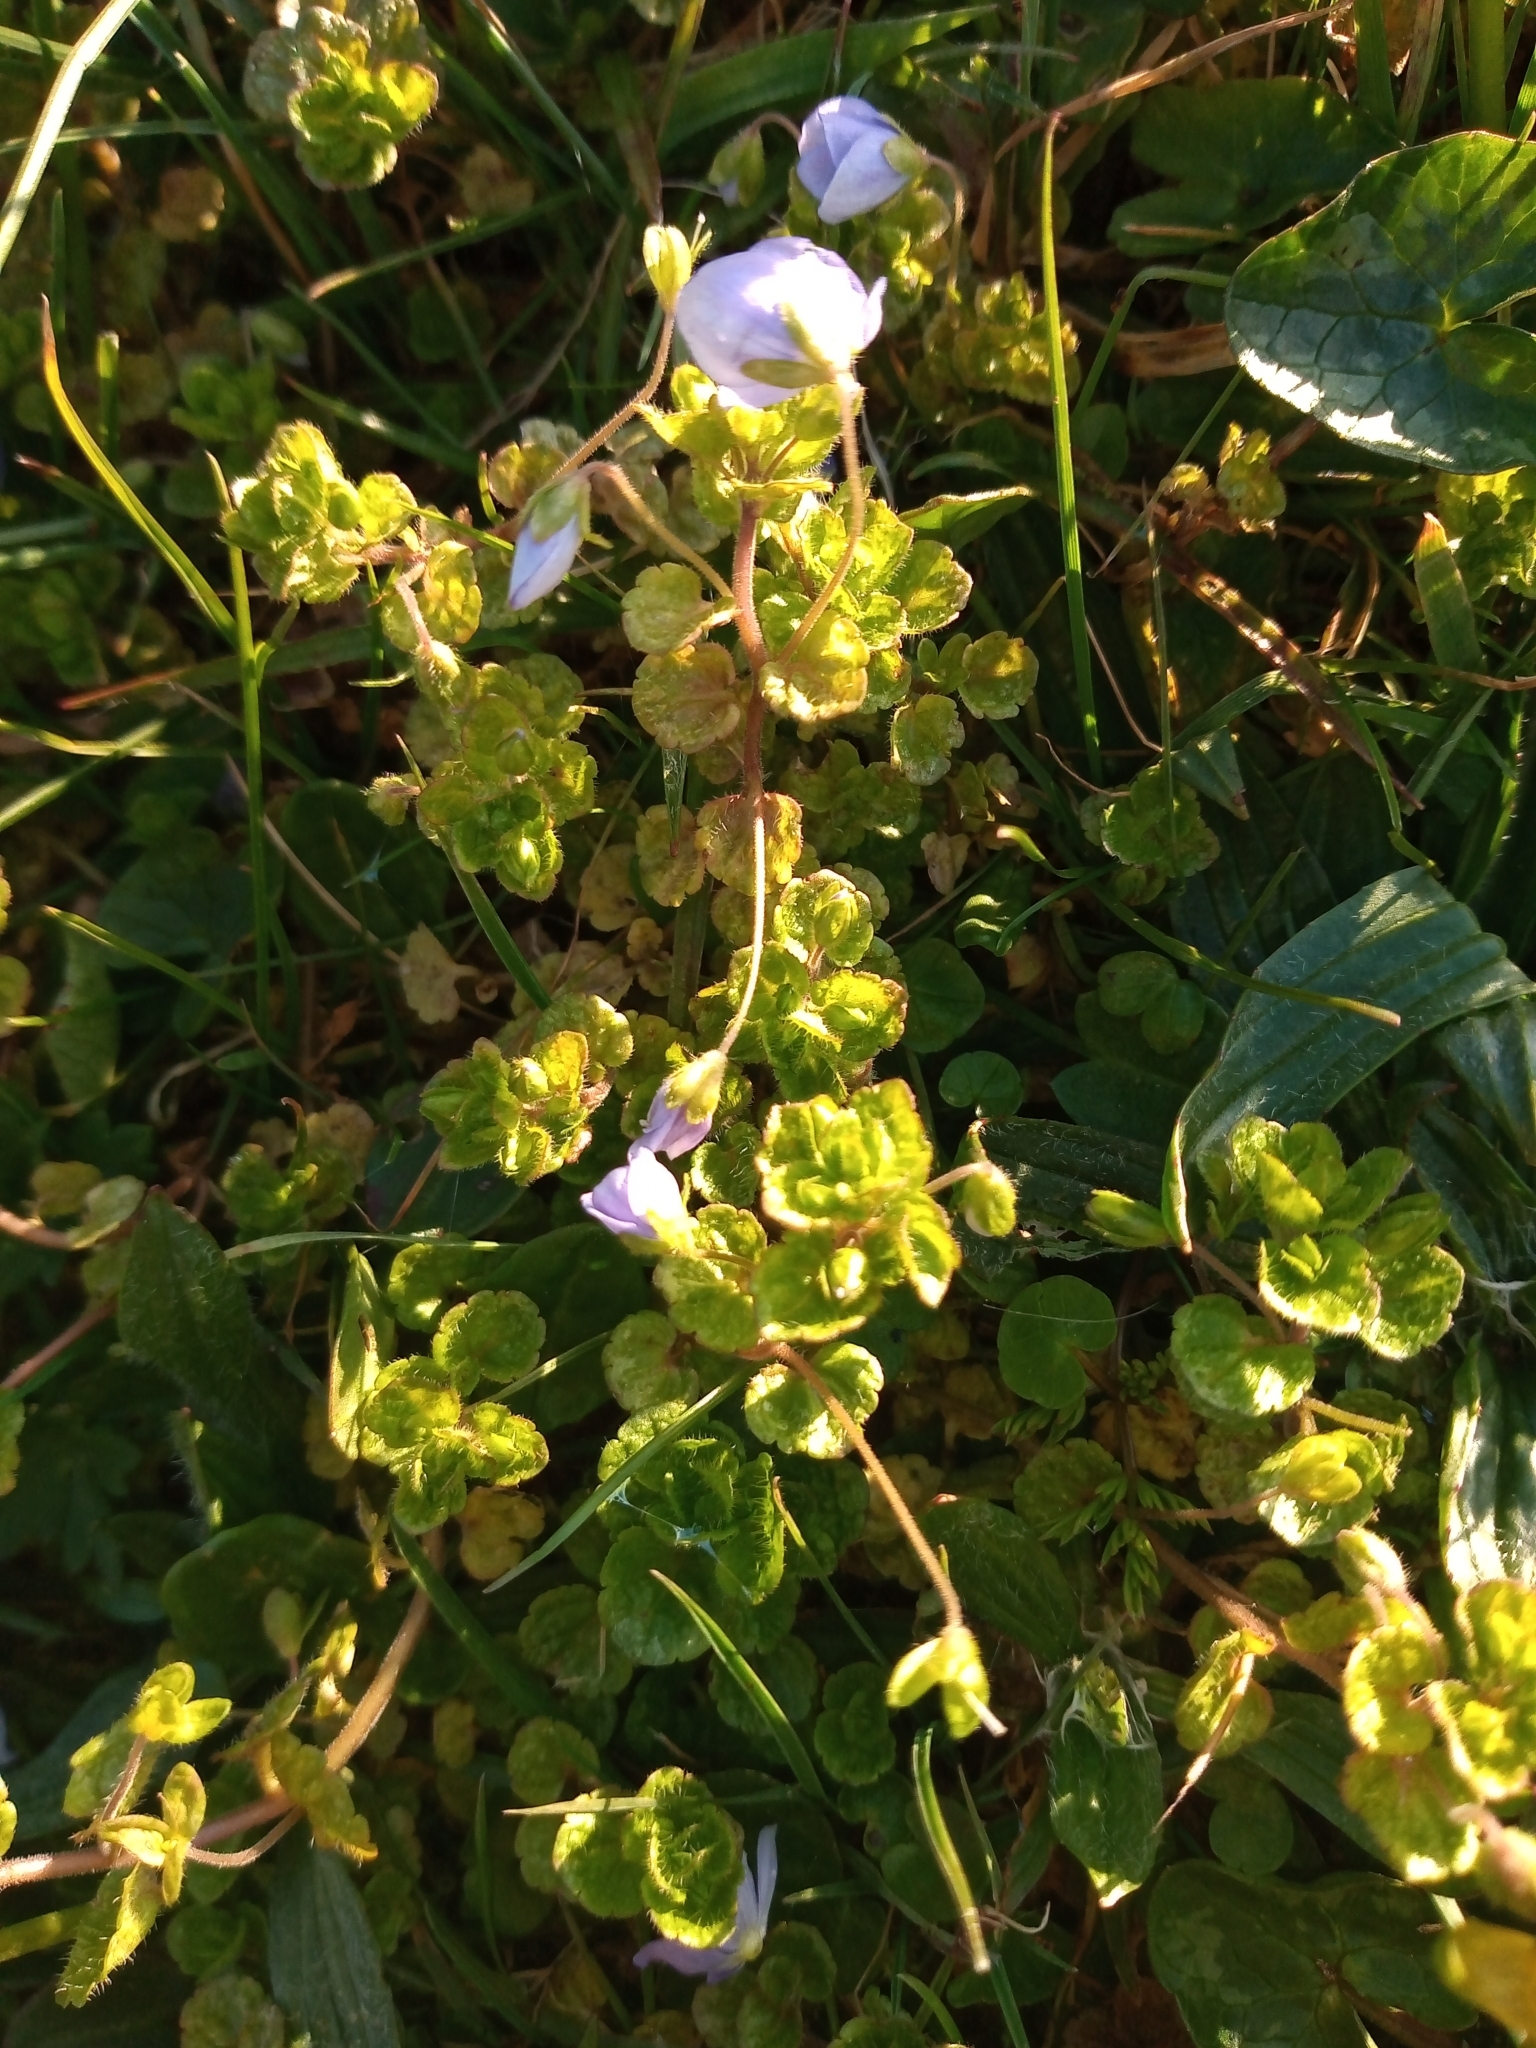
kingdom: Plantae
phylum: Tracheophyta
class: Magnoliopsida
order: Lamiales
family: Plantaginaceae
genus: Veronica
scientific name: Veronica filiformis
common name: Slender speedwell
